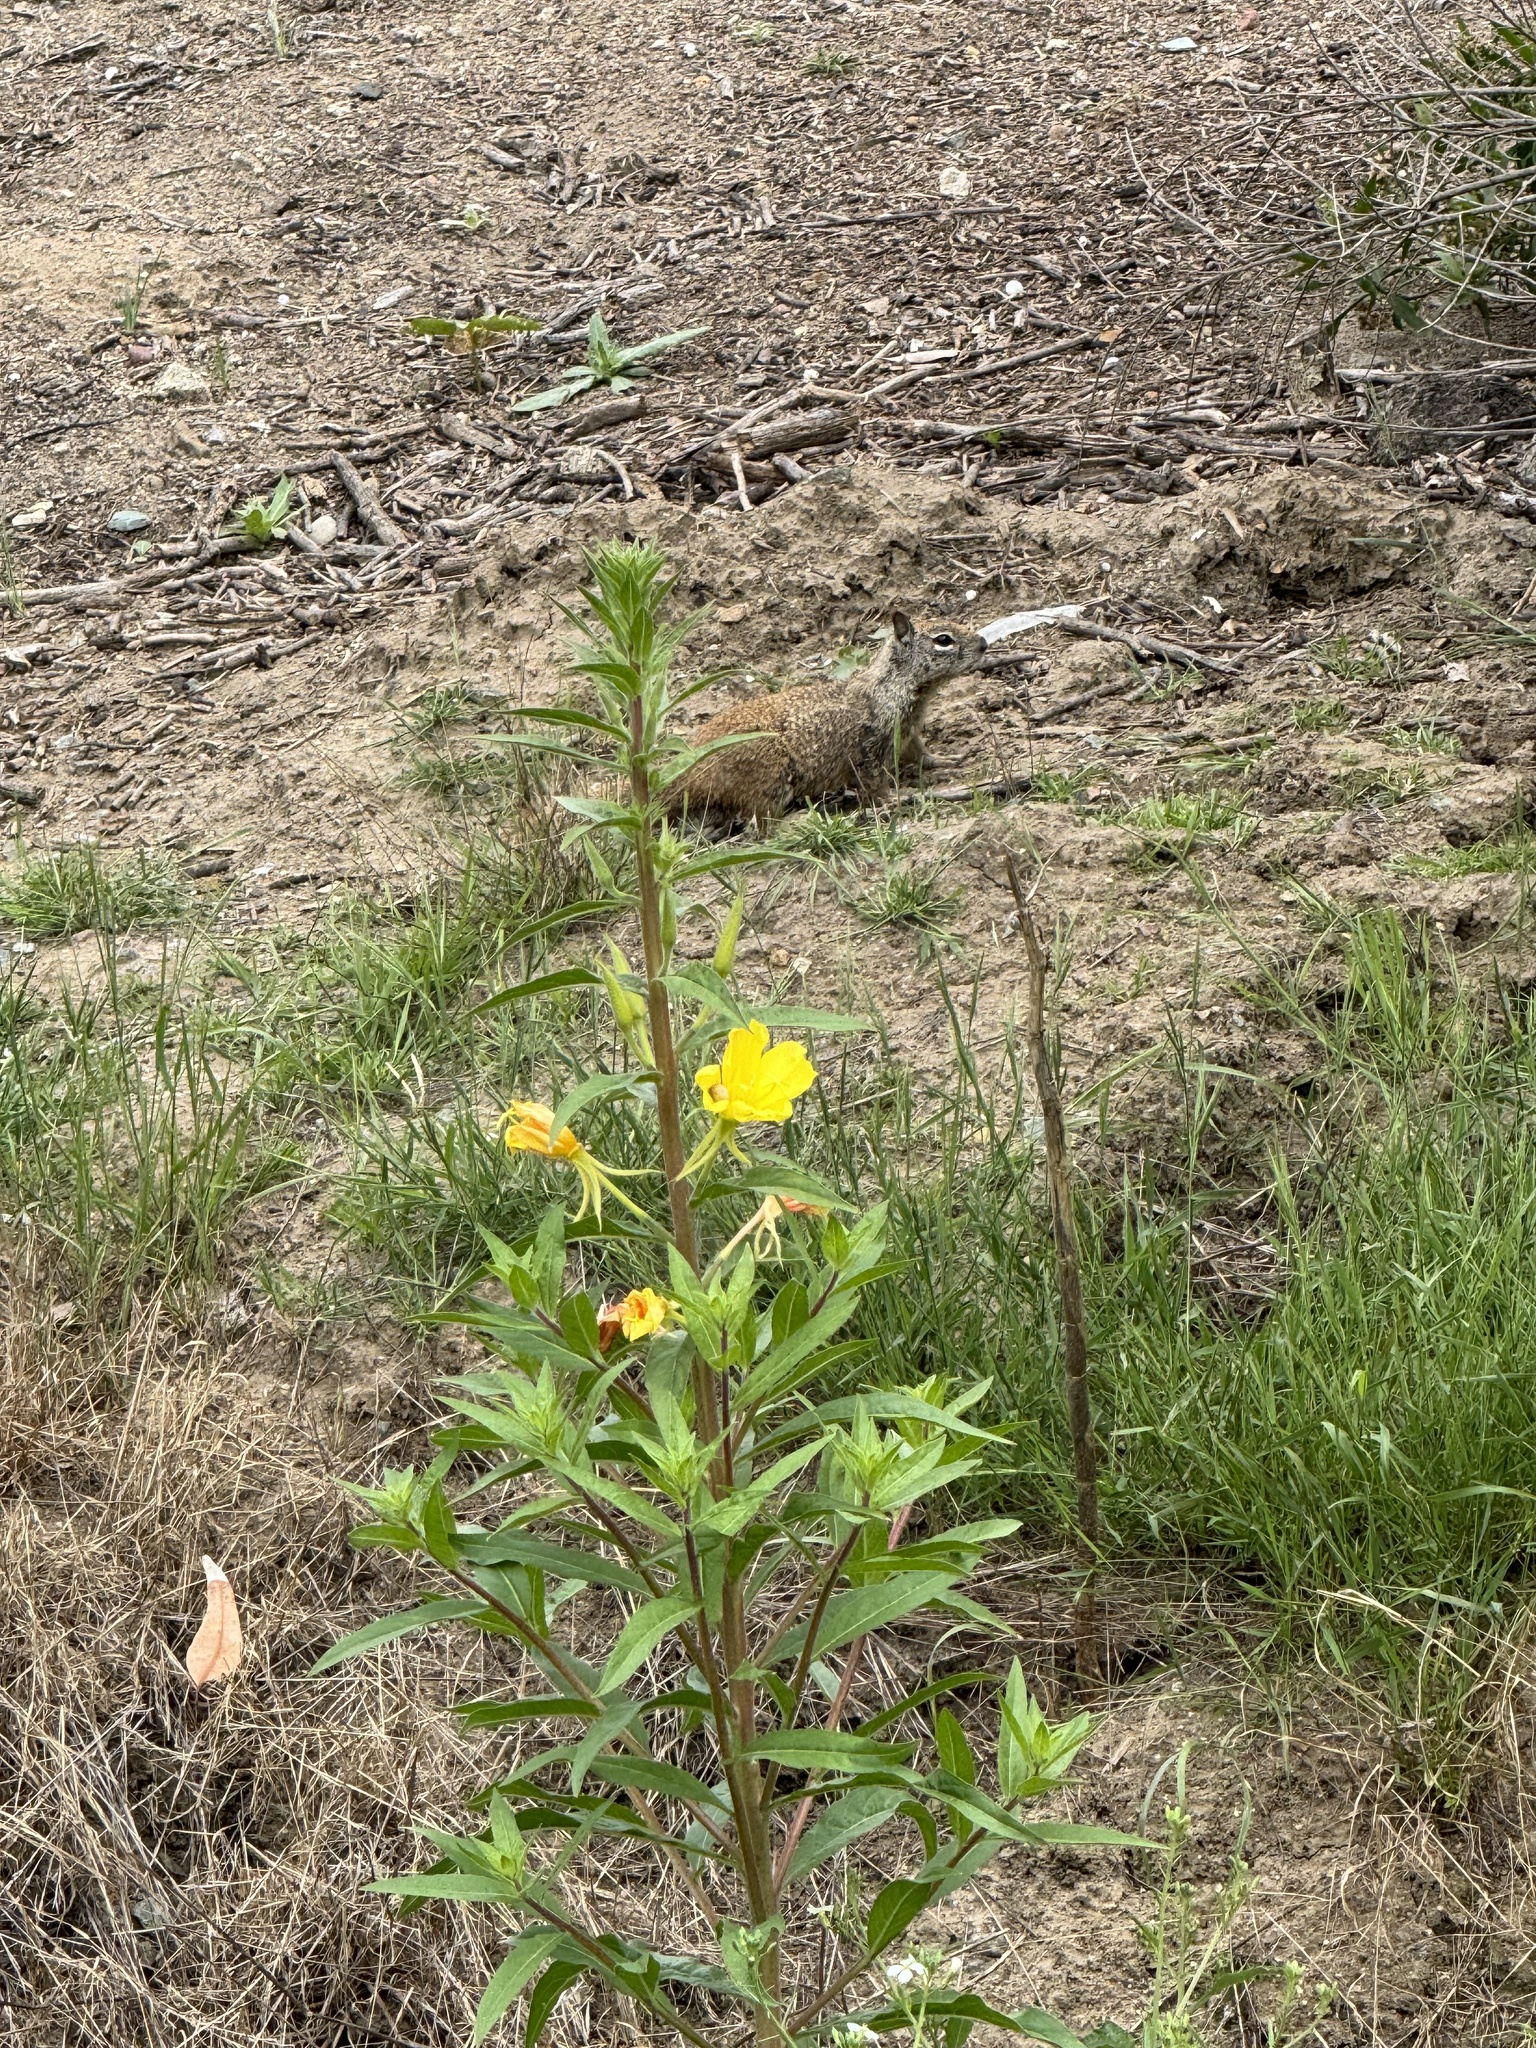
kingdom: Plantae
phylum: Tracheophyta
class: Magnoliopsida
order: Myrtales
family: Onagraceae
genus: Oenothera
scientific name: Oenothera elata
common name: Hooker's evening-primrose
